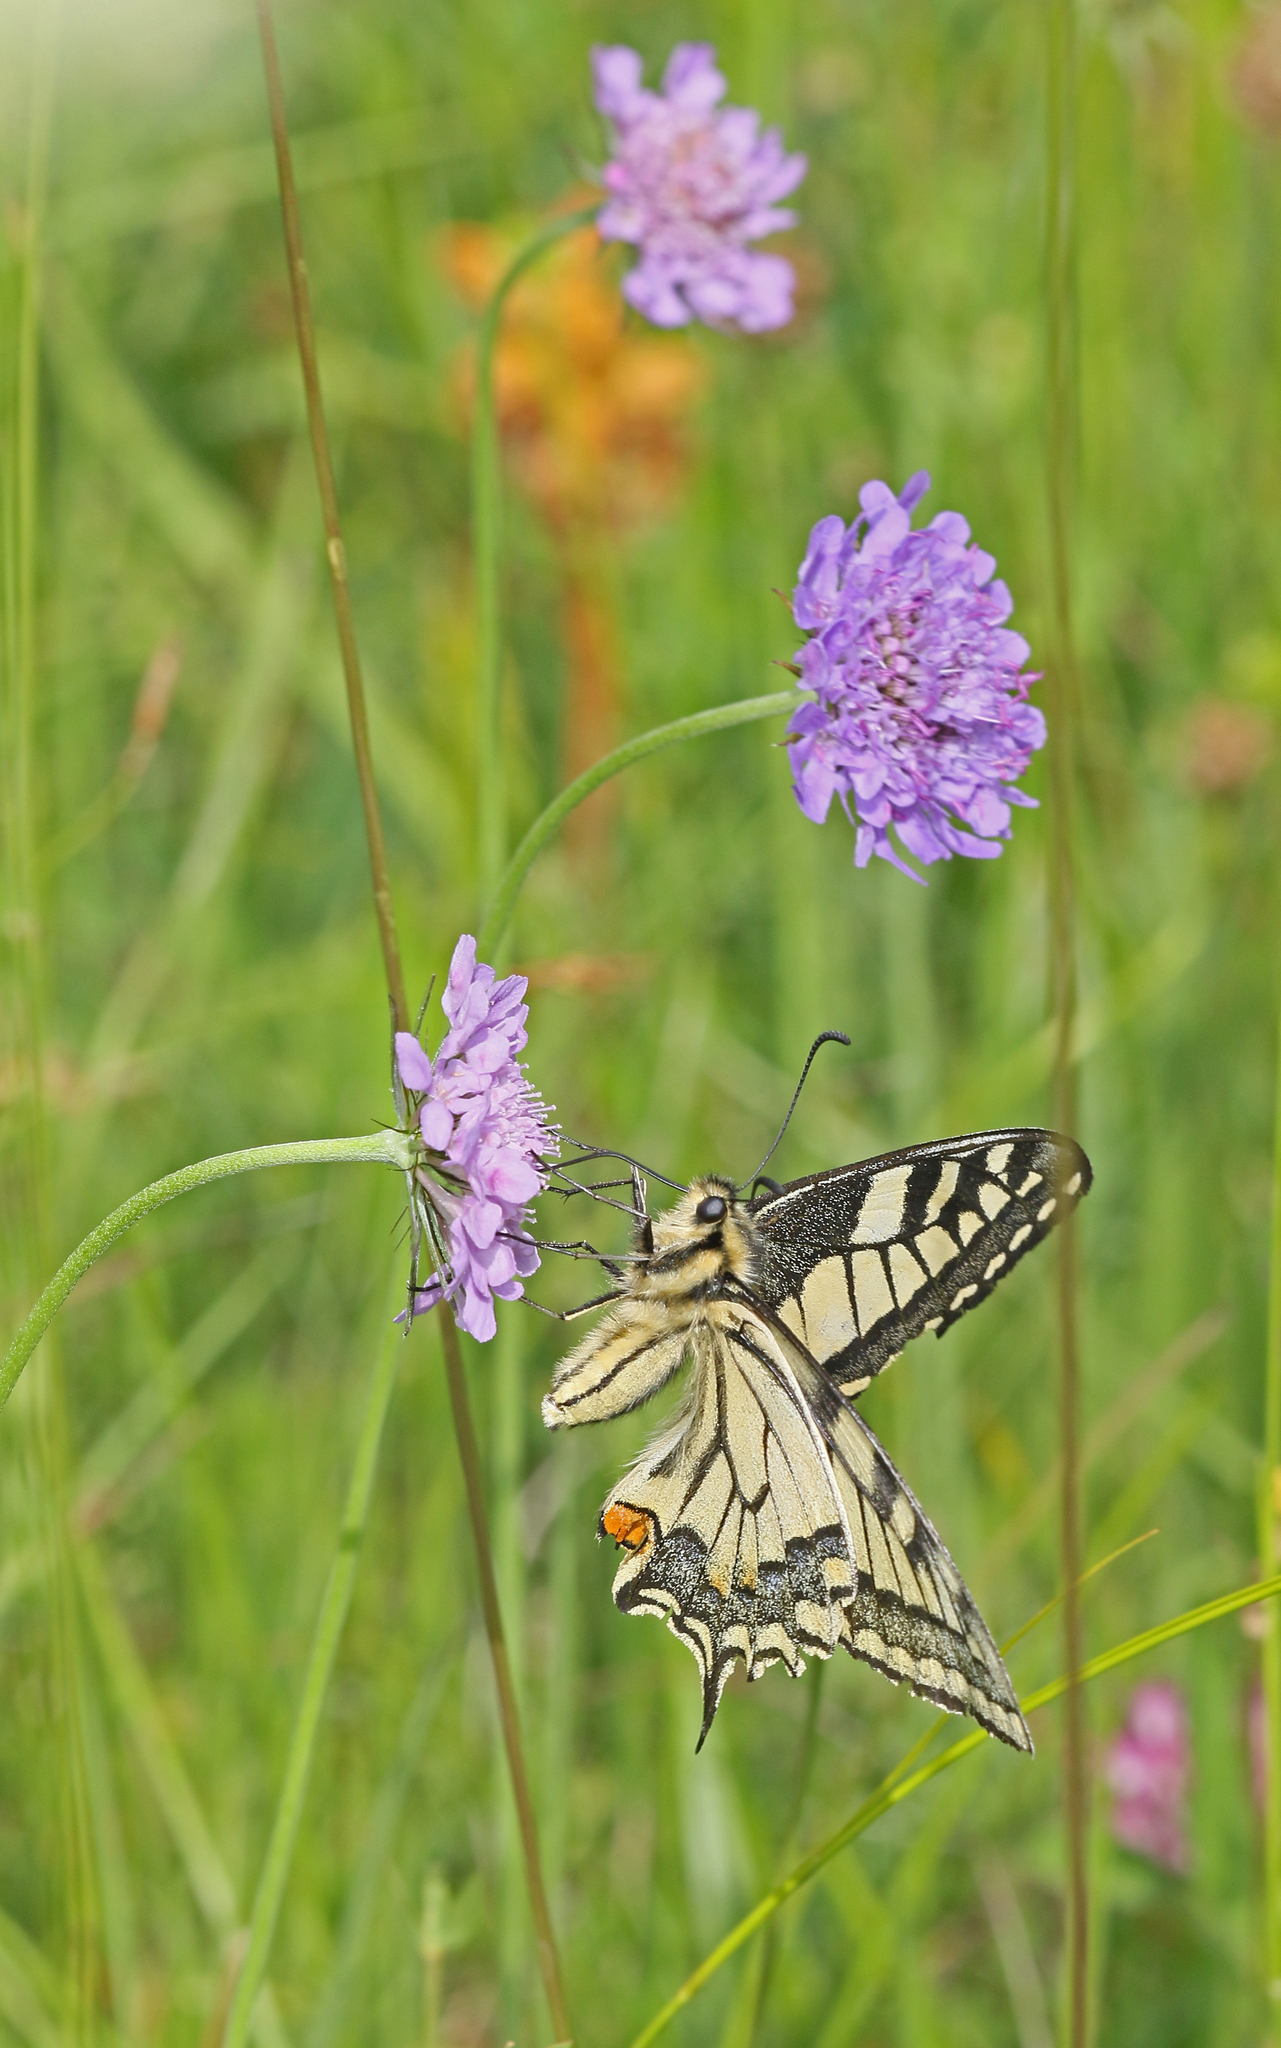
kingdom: Animalia
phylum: Arthropoda
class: Insecta
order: Lepidoptera
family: Papilionidae
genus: Papilio
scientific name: Papilio machaon
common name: Swallowtail
